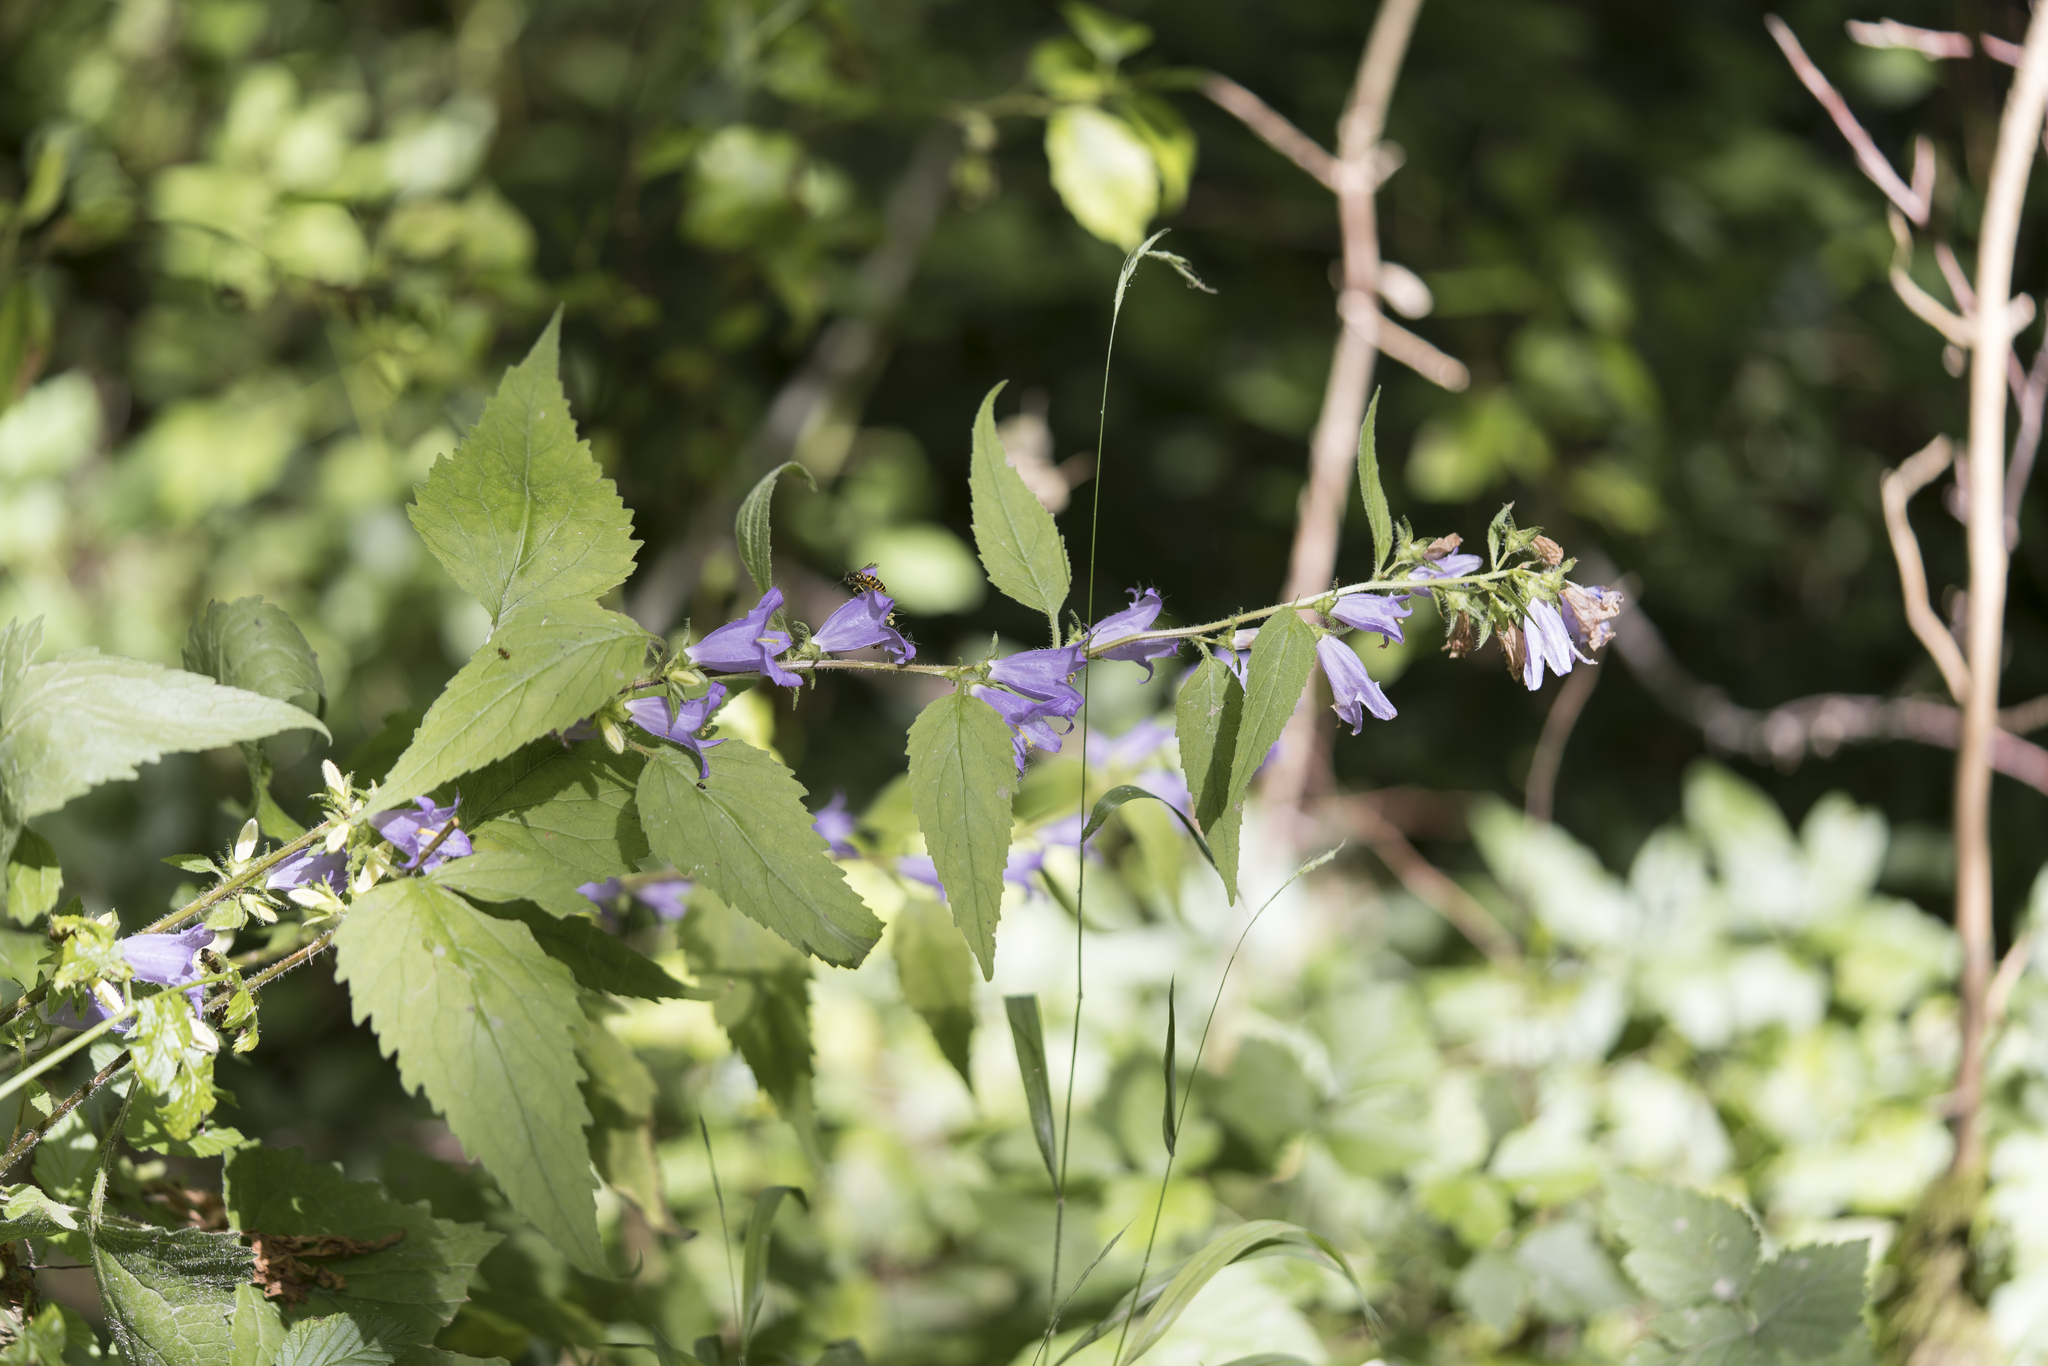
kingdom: Plantae
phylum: Tracheophyta
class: Magnoliopsida
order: Asterales
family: Campanulaceae
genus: Campanula
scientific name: Campanula trachelium
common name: Nettle-leaved bellflower
